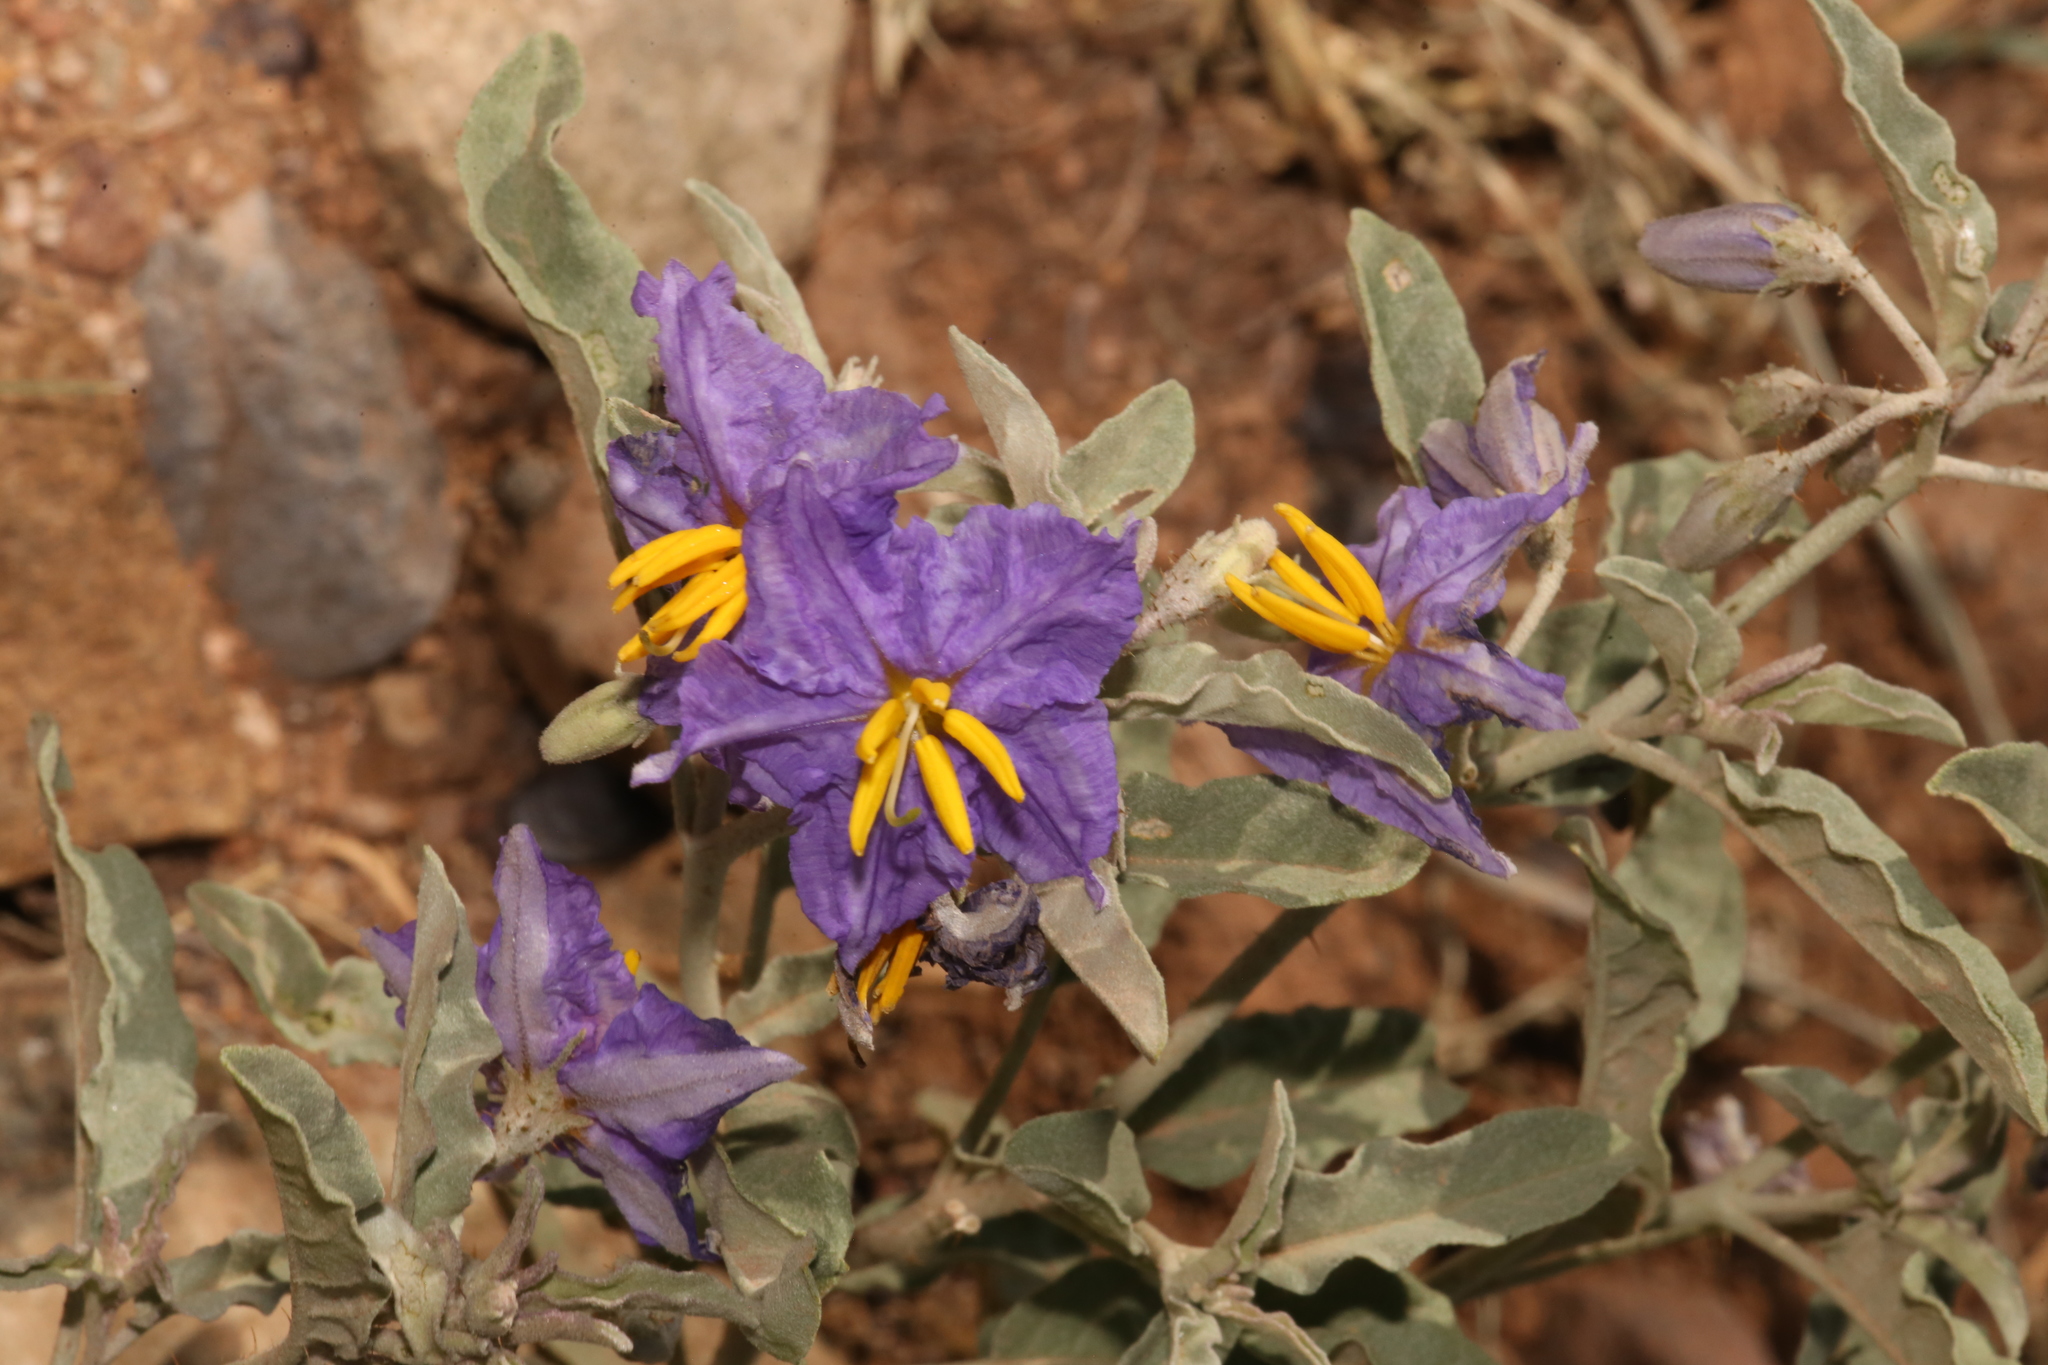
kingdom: Plantae
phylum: Tracheophyta
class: Magnoliopsida
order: Solanales
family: Solanaceae
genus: Solanum
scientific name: Solanum elaeagnifolium
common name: Silverleaf nightshade
